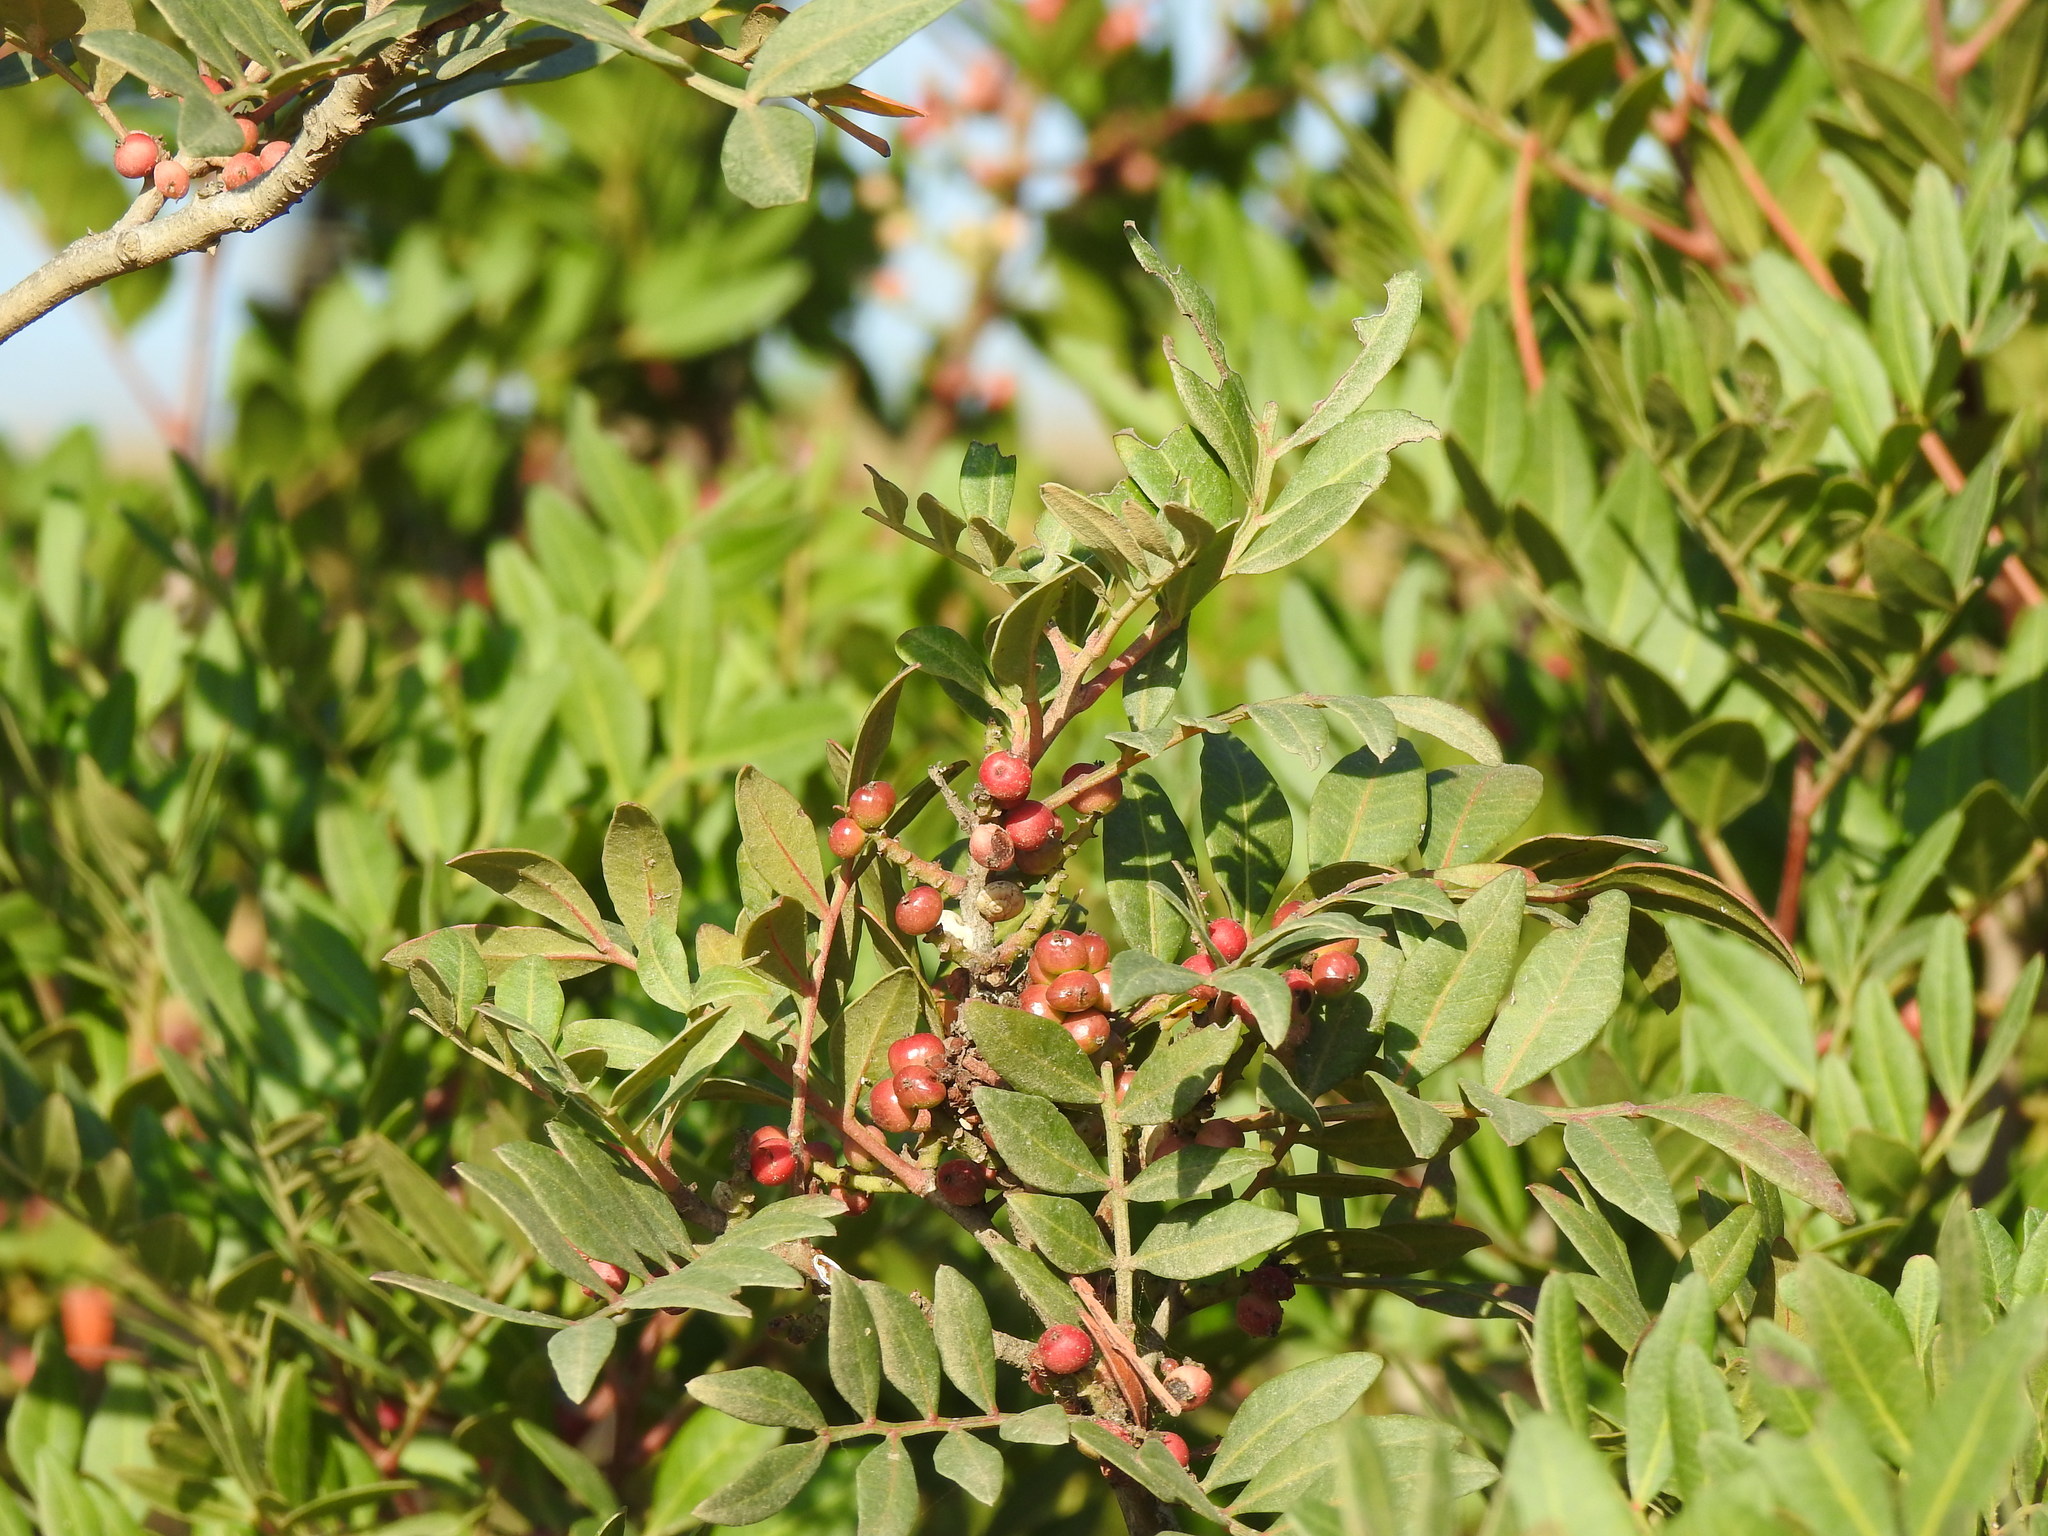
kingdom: Plantae
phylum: Tracheophyta
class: Magnoliopsida
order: Sapindales
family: Anacardiaceae
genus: Pistacia
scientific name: Pistacia lentiscus
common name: Lentisk
